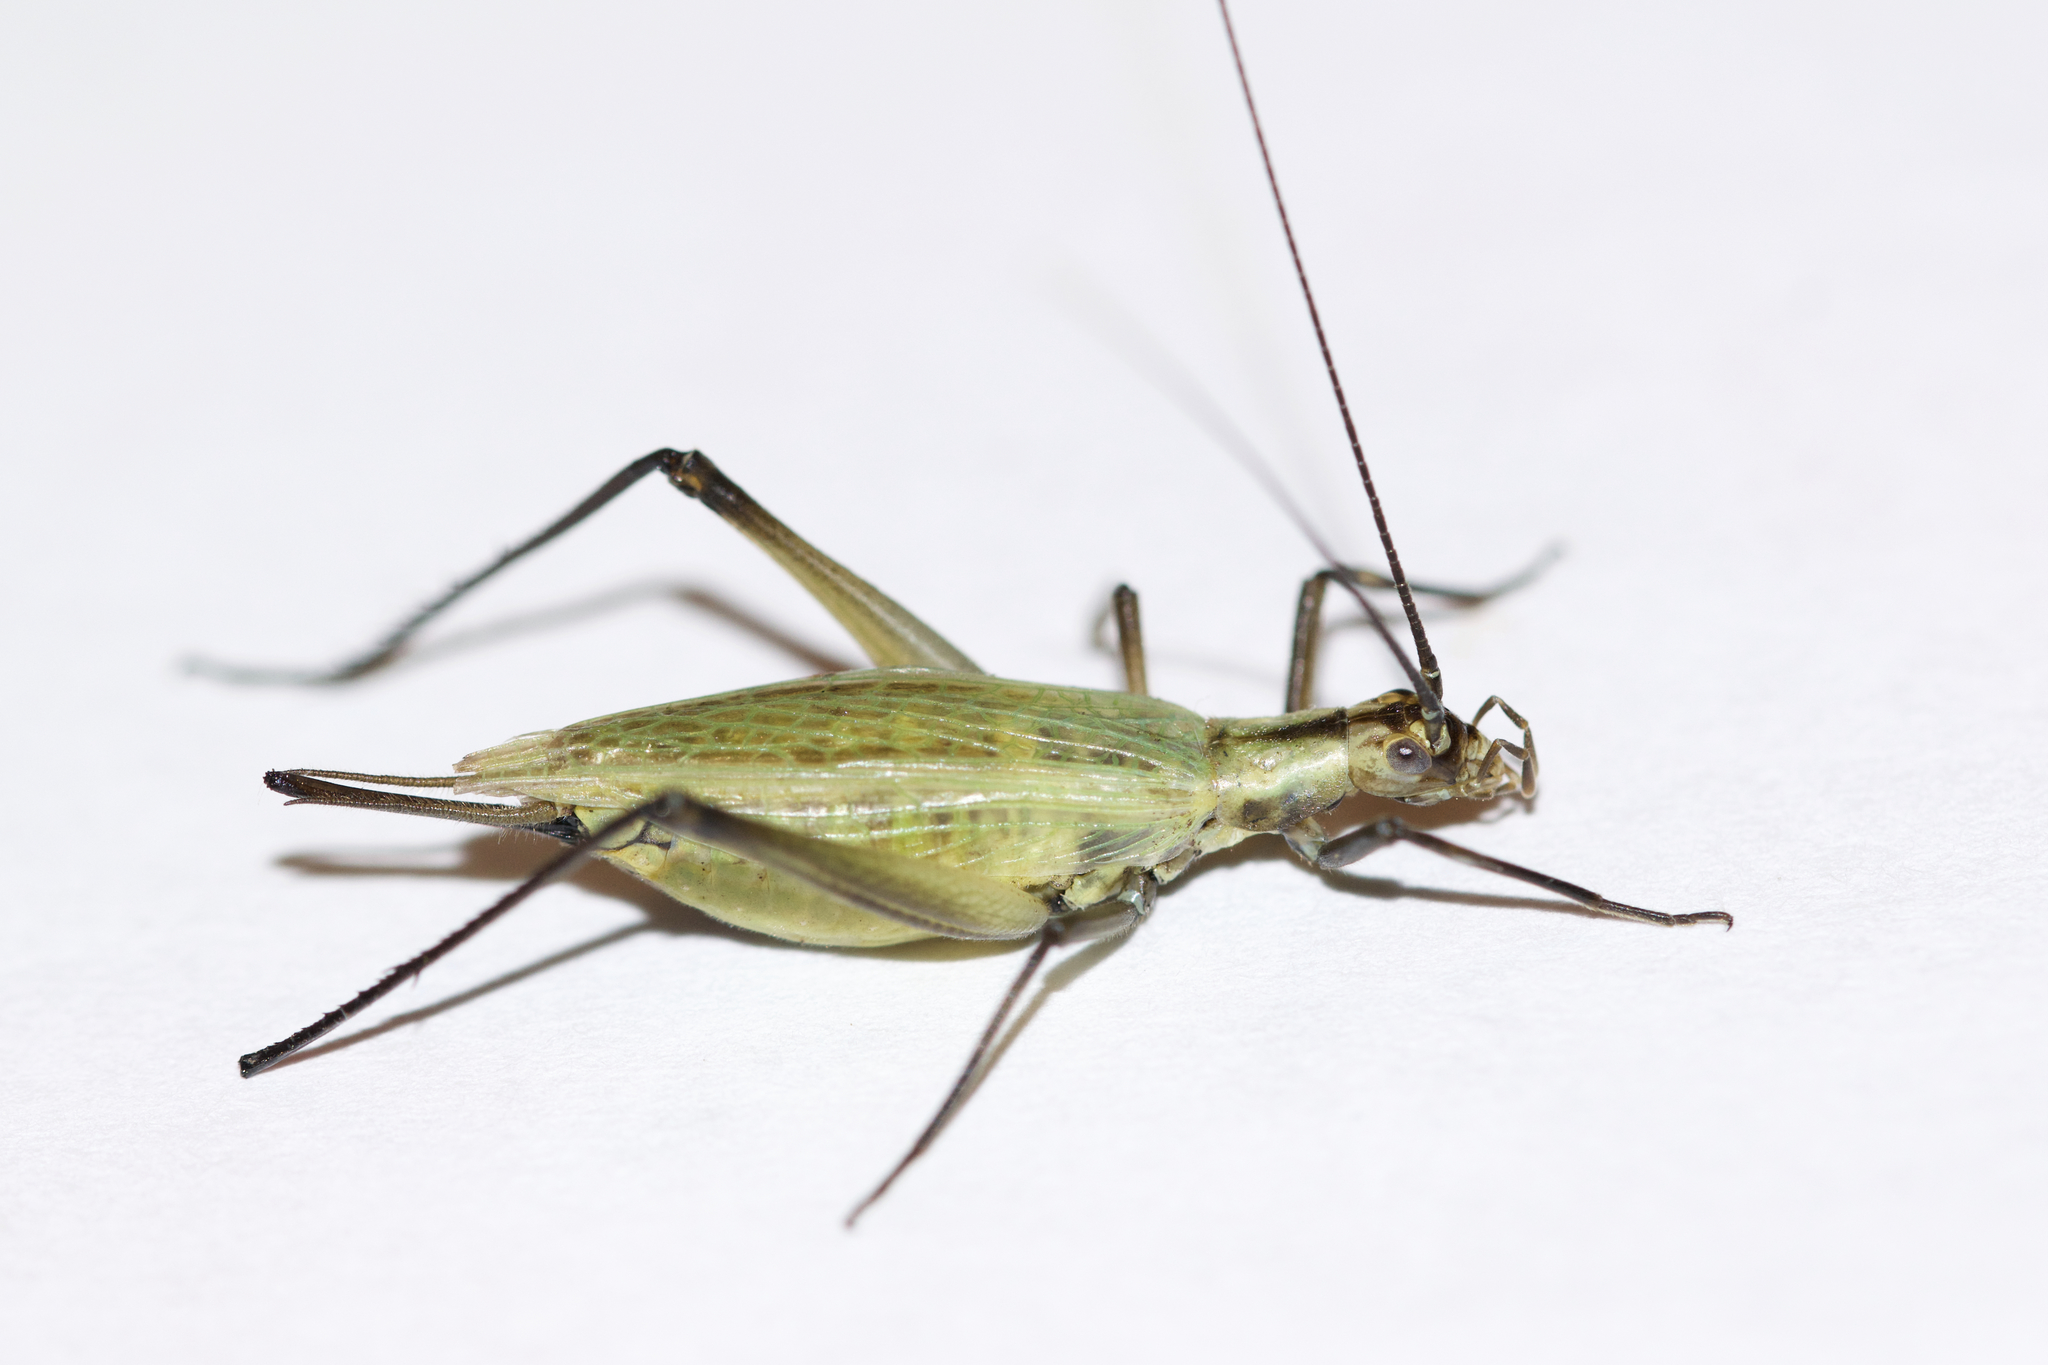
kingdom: Animalia
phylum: Arthropoda
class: Insecta
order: Orthoptera
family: Gryllidae
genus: Oecanthus
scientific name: Oecanthus nigricornis
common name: Black-horned tree cricket
